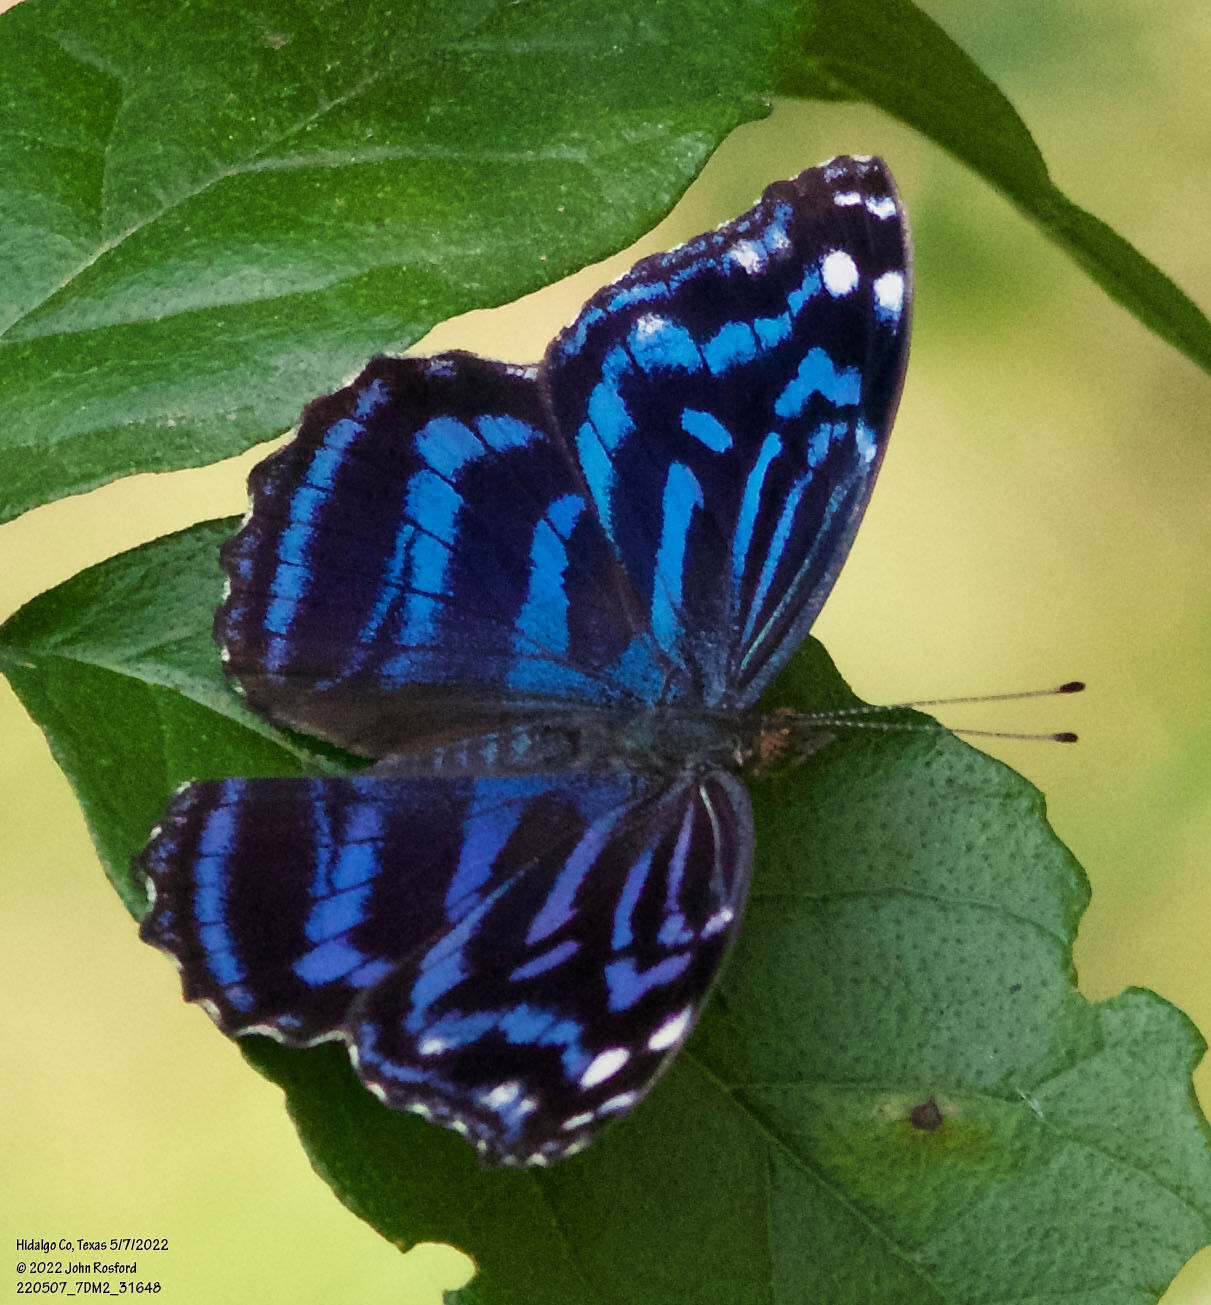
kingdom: Animalia
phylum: Arthropoda
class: Insecta
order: Lepidoptera
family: Nymphalidae
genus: Myscelia
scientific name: Myscelia ethusa
